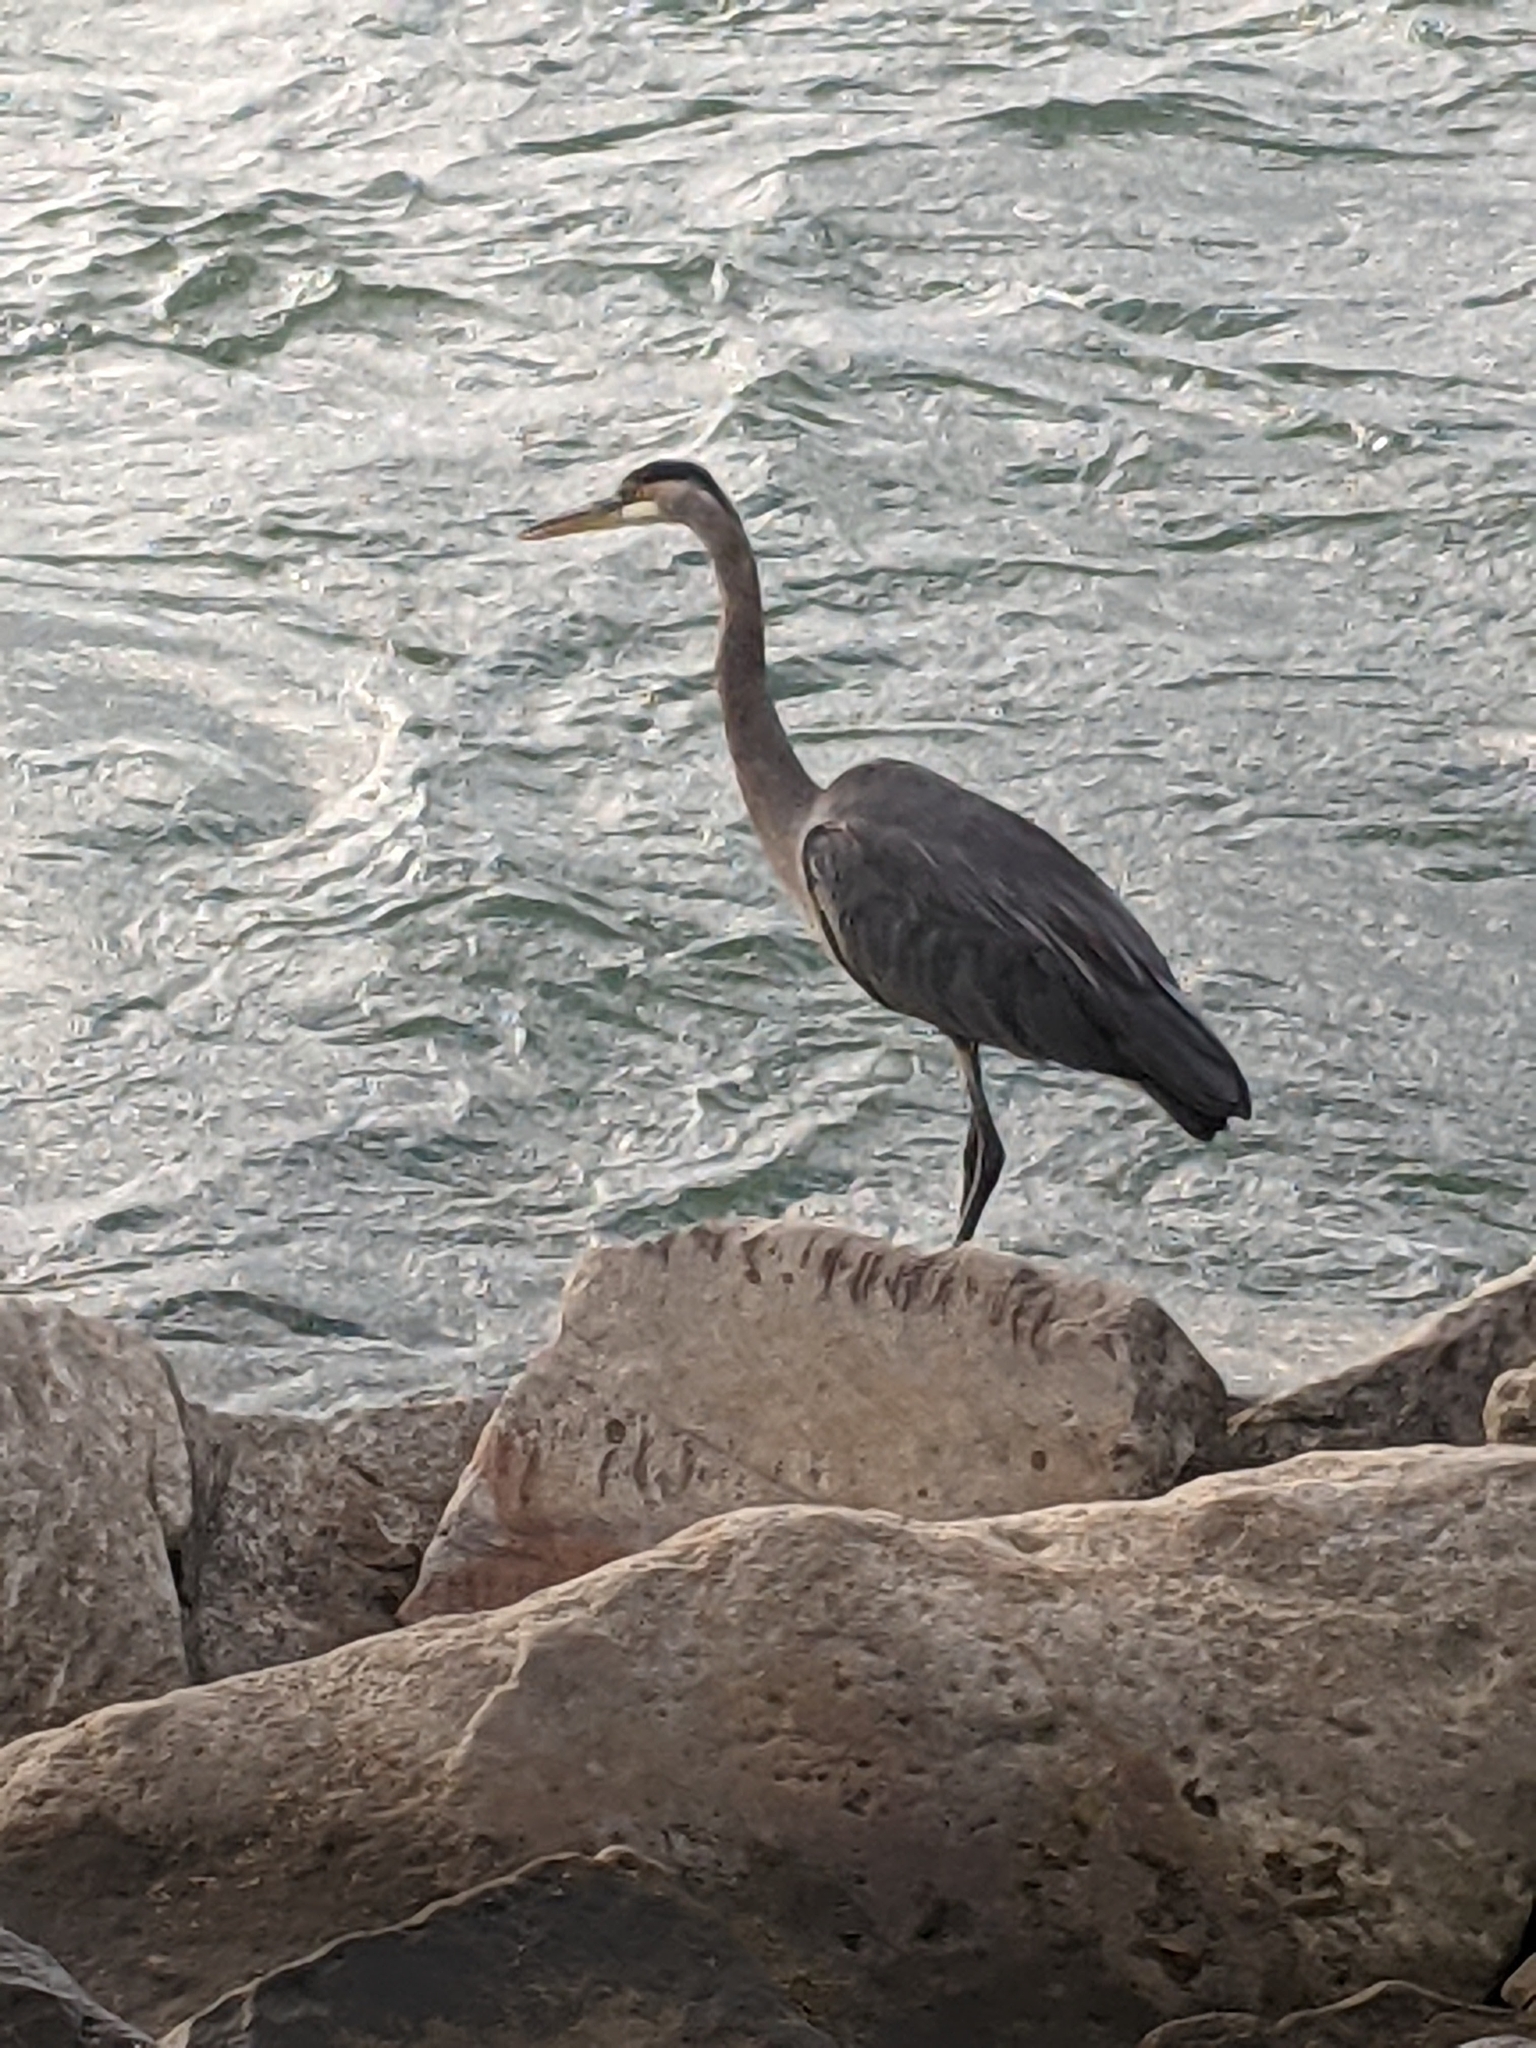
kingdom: Animalia
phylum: Chordata
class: Aves
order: Pelecaniformes
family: Ardeidae
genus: Ardea
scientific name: Ardea herodias
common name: Great blue heron
